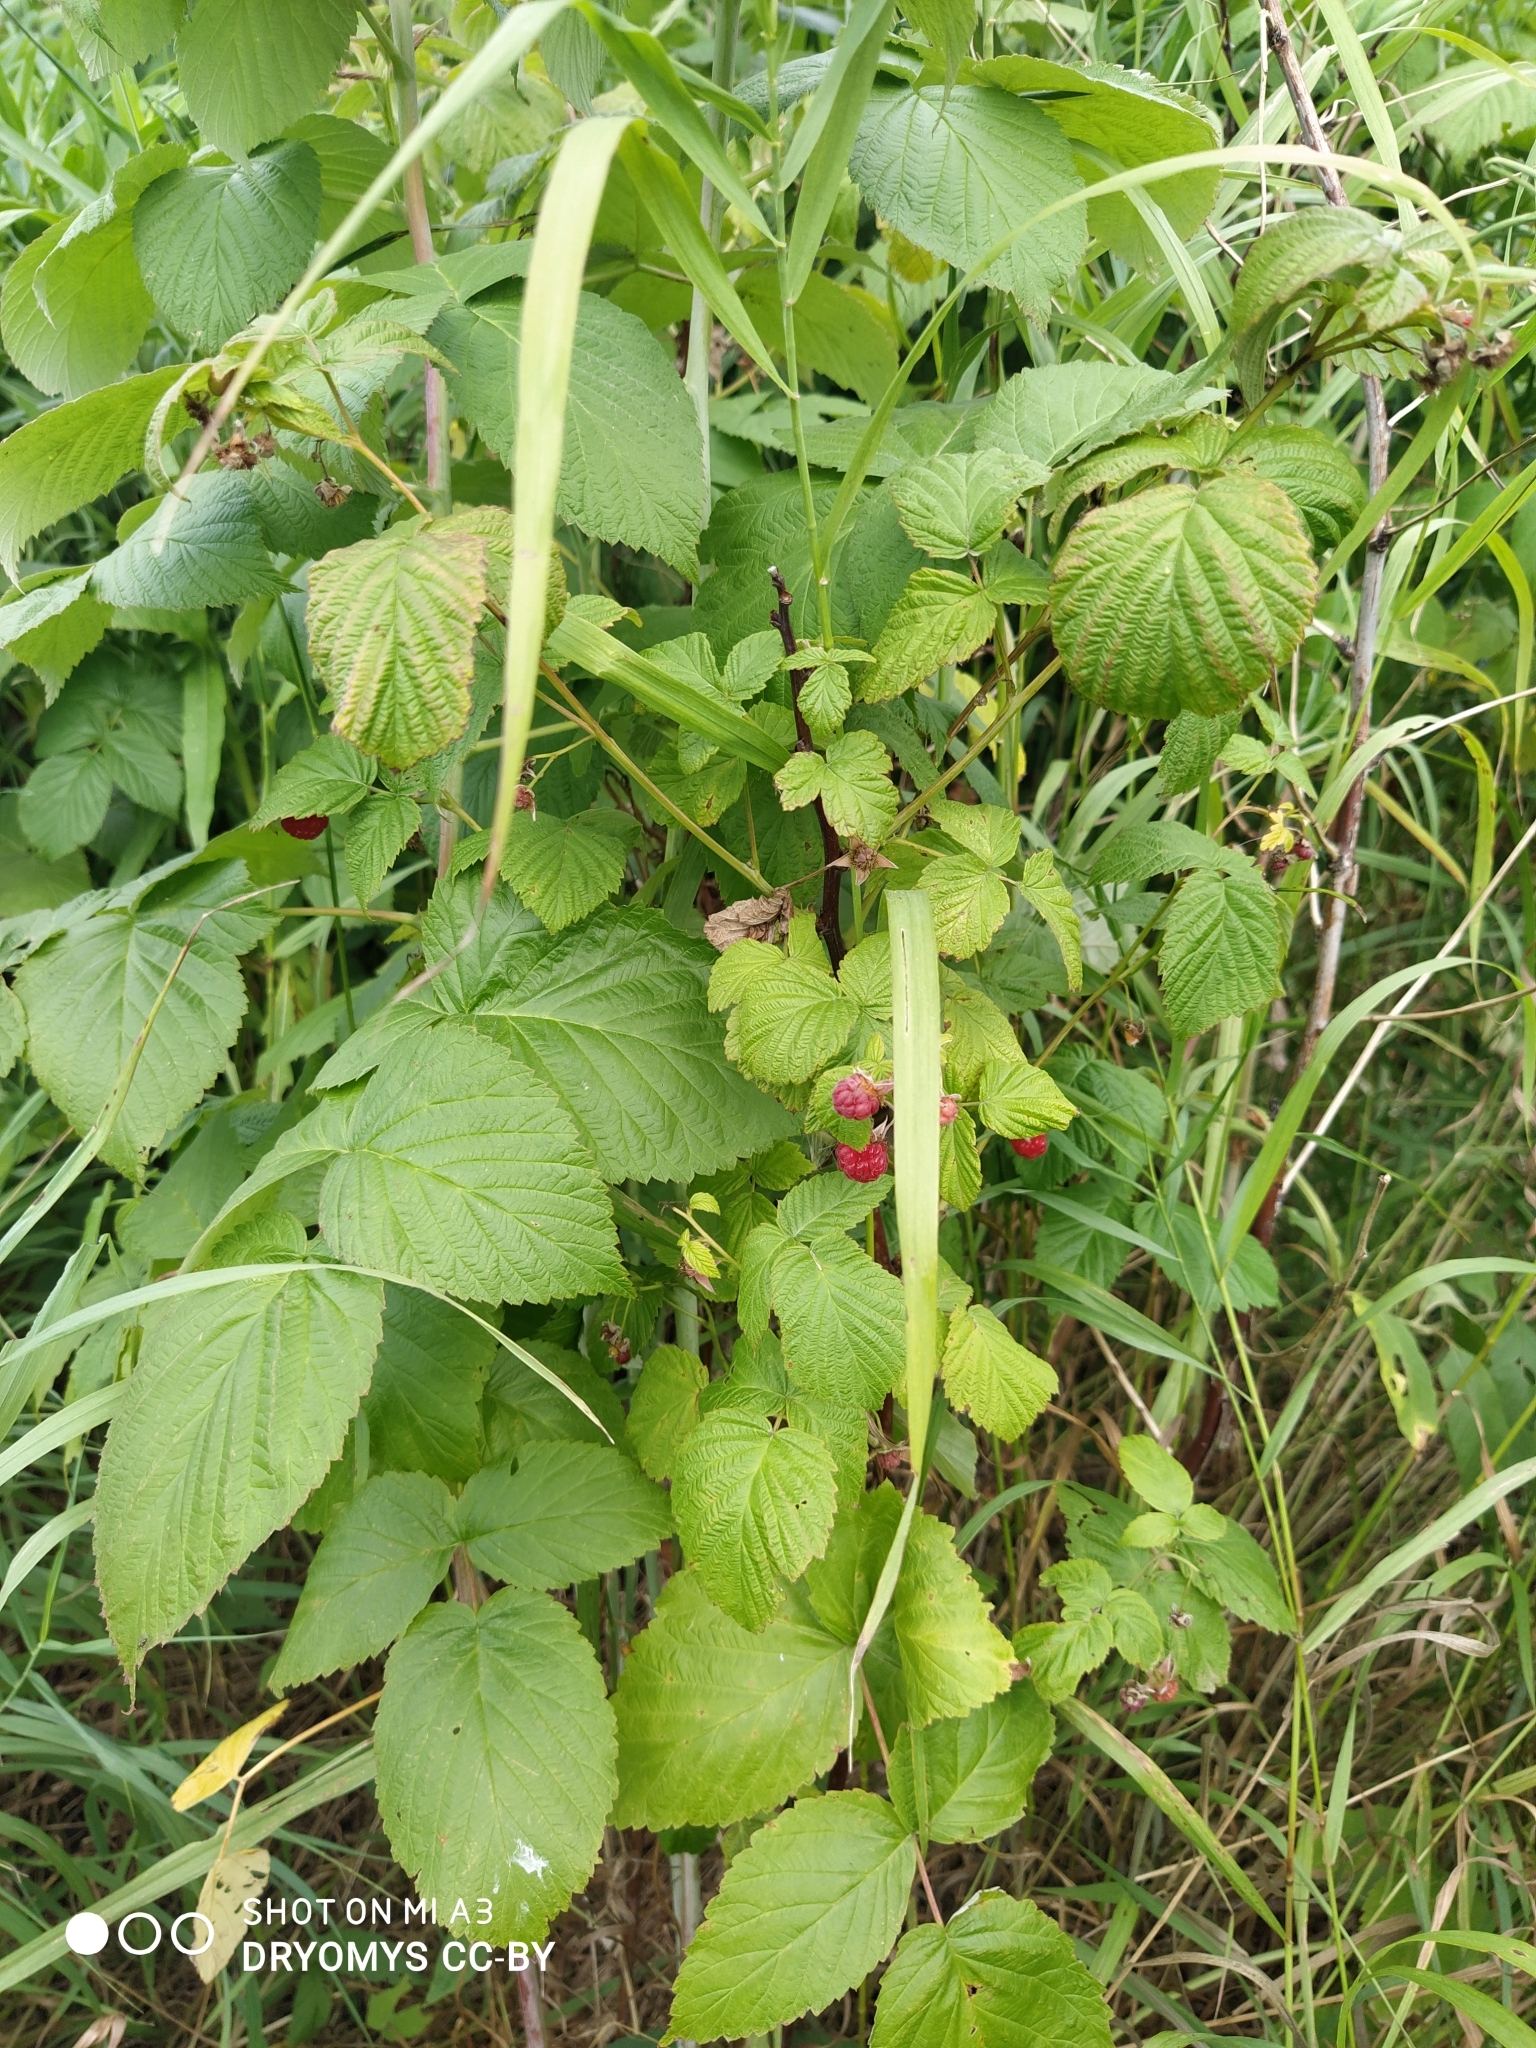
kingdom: Plantae
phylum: Tracheophyta
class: Magnoliopsida
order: Rosales
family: Rosaceae
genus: Rubus
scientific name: Rubus idaeus
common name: Raspberry
